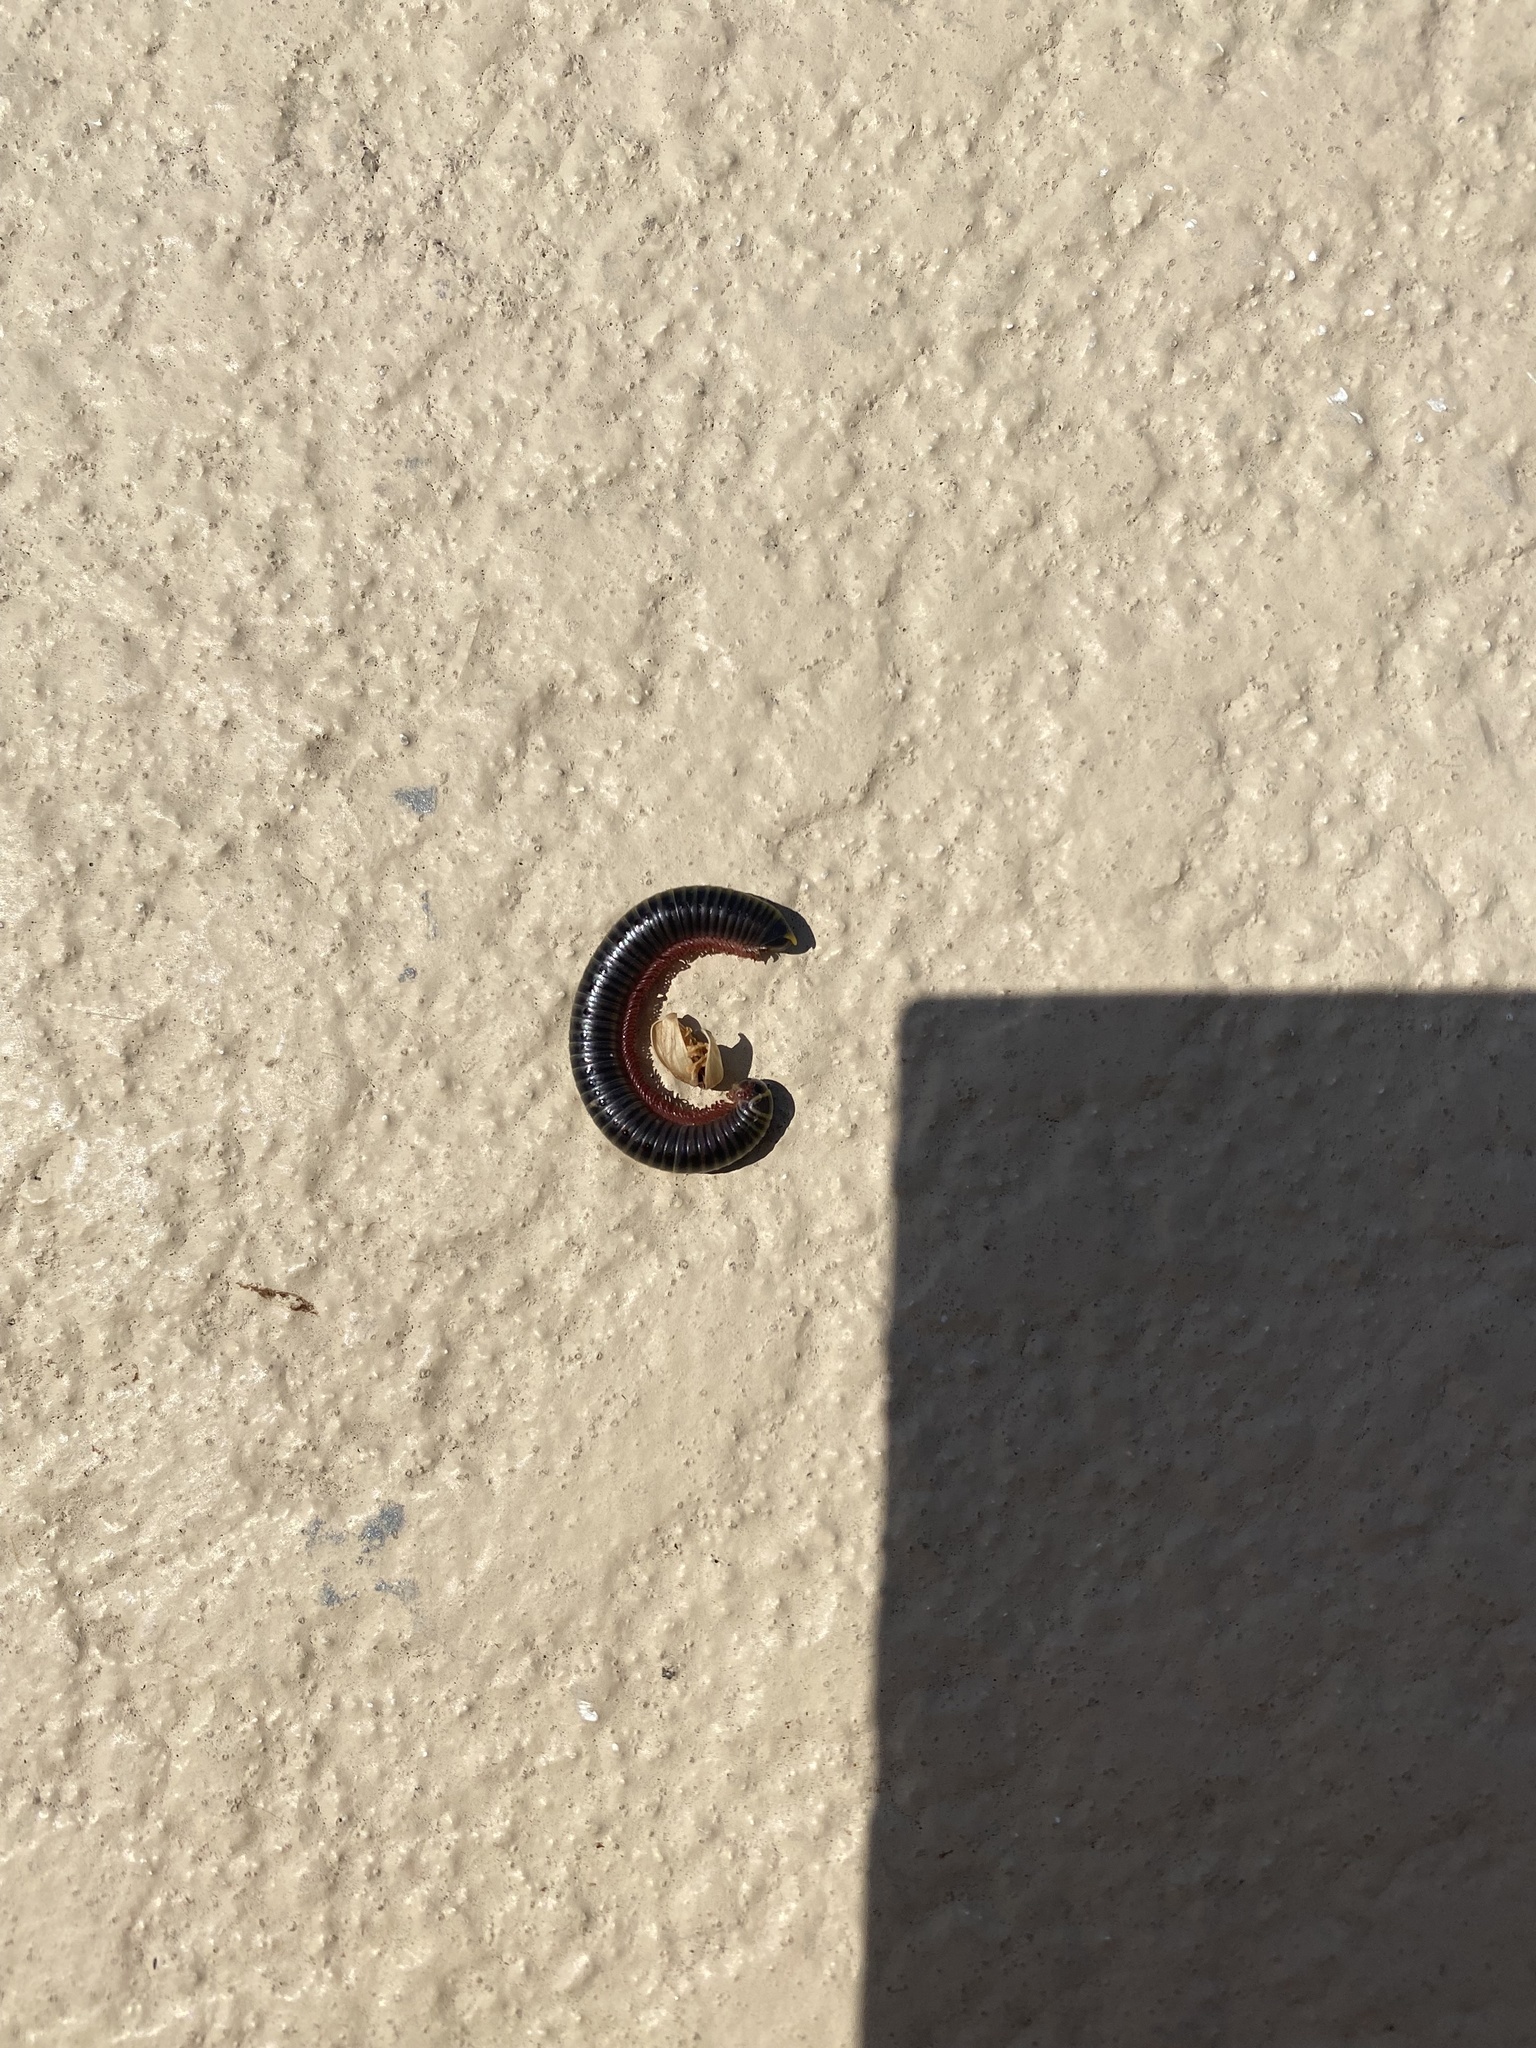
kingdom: Animalia
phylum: Arthropoda
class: Diplopoda
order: Spirobolida
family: Rhinocricidae
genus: Anadenobolus
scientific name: Anadenobolus monilicornis
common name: Caribbean millipede
